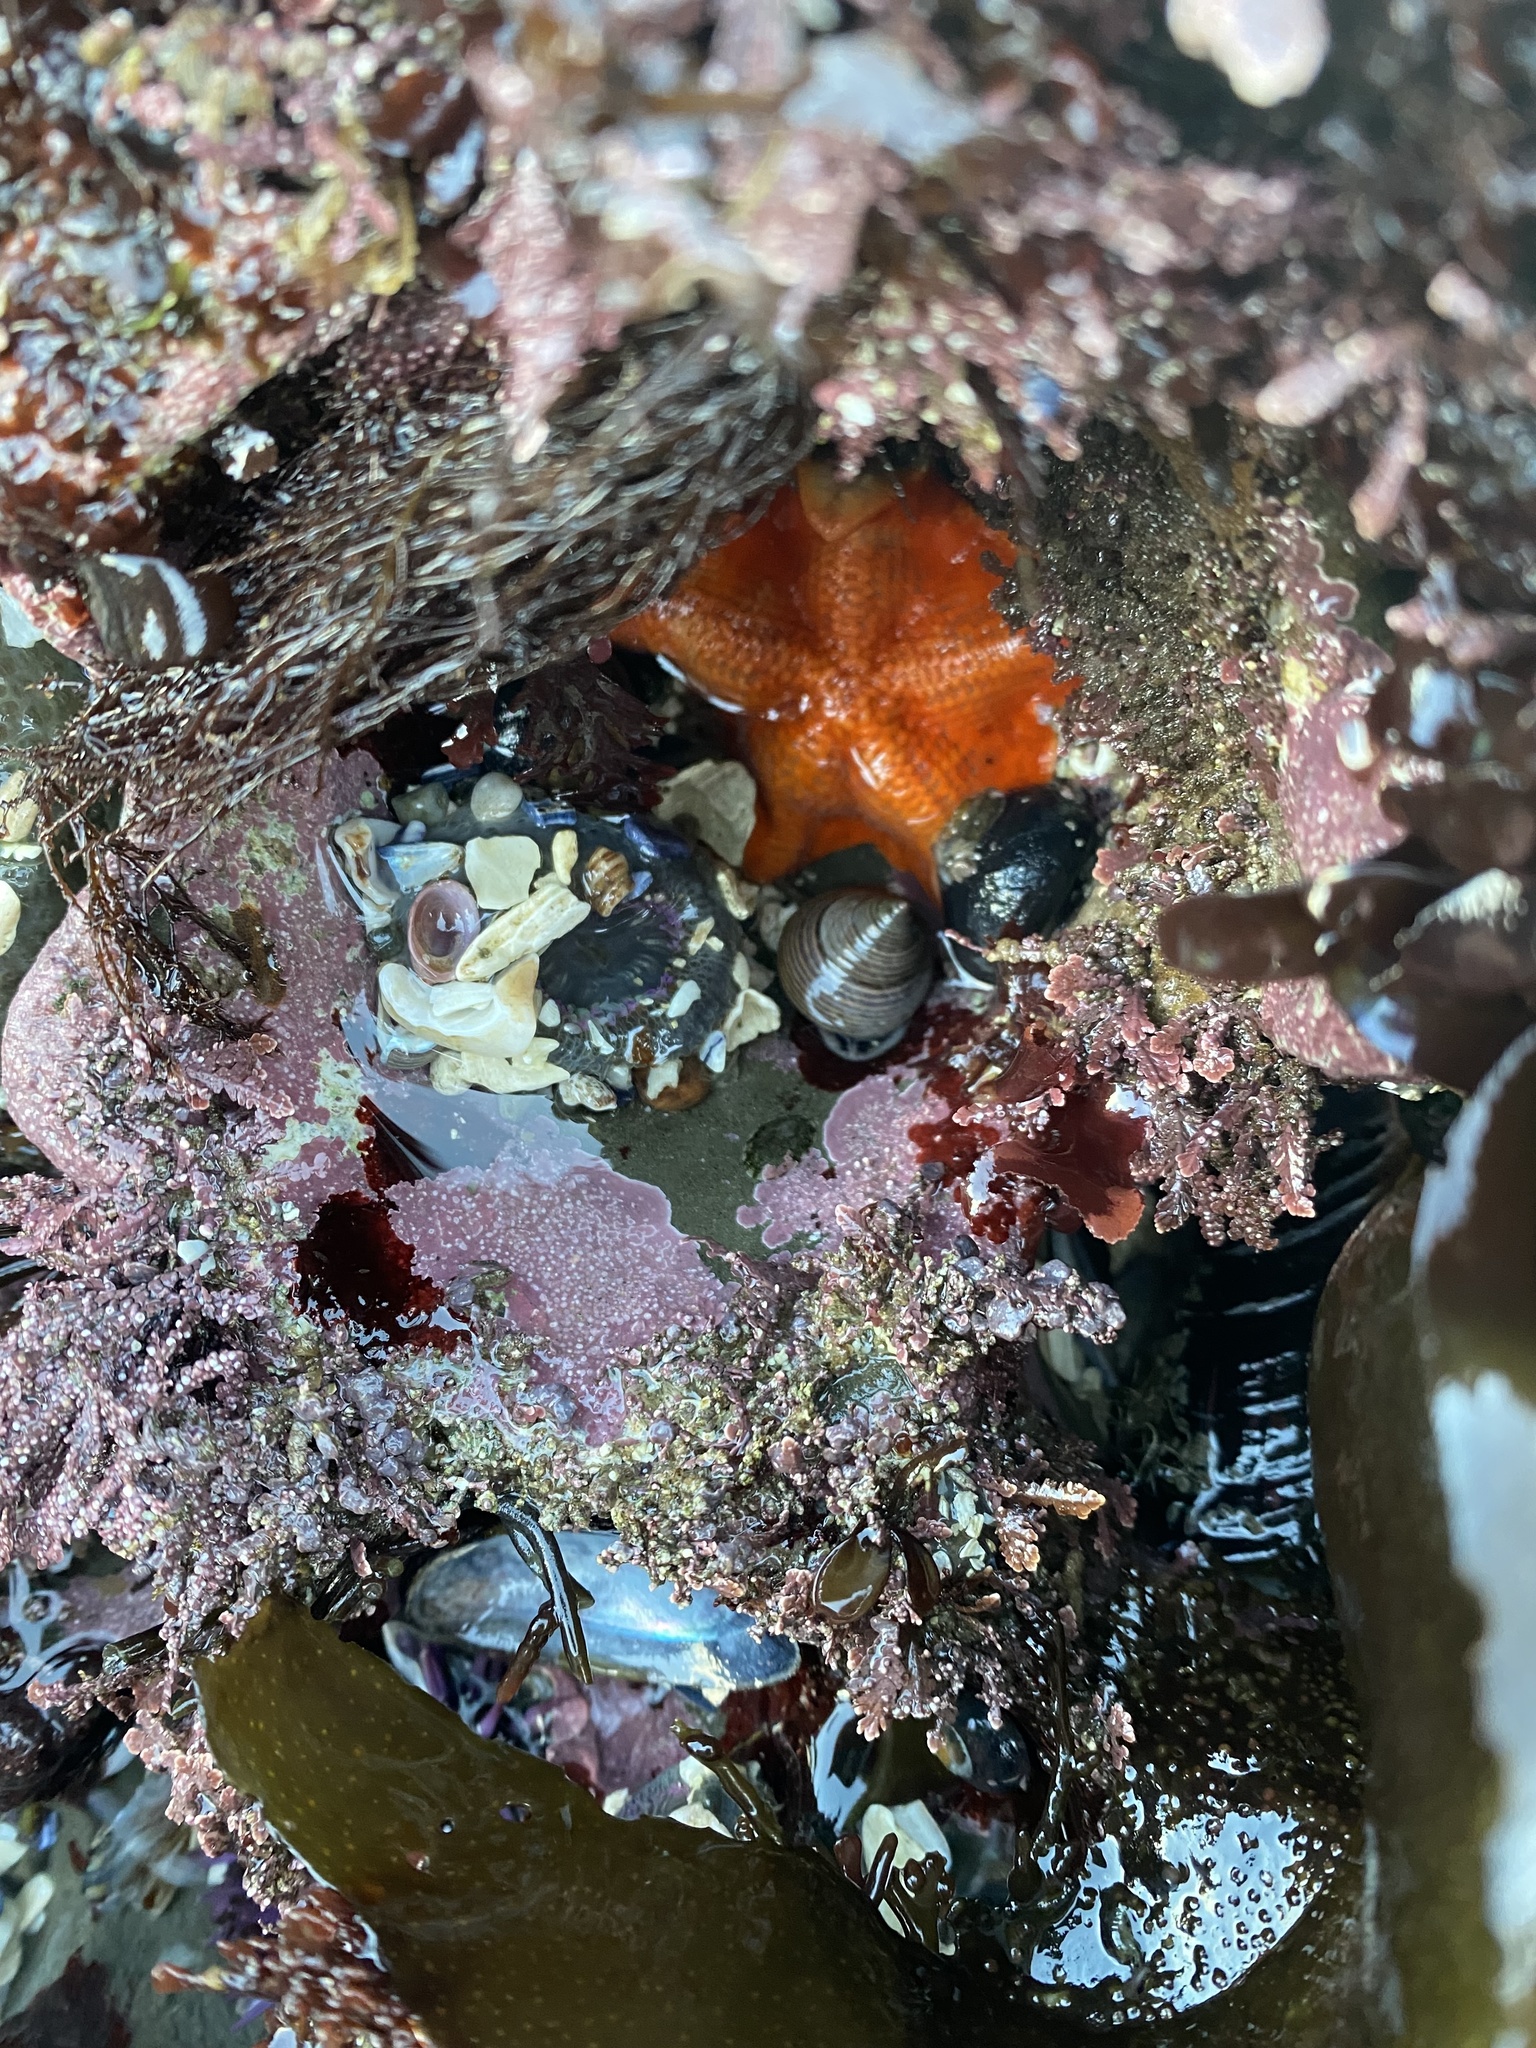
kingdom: Animalia
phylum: Echinodermata
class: Asteroidea
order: Valvatida
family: Asterinidae
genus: Patiria
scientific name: Patiria miniata
